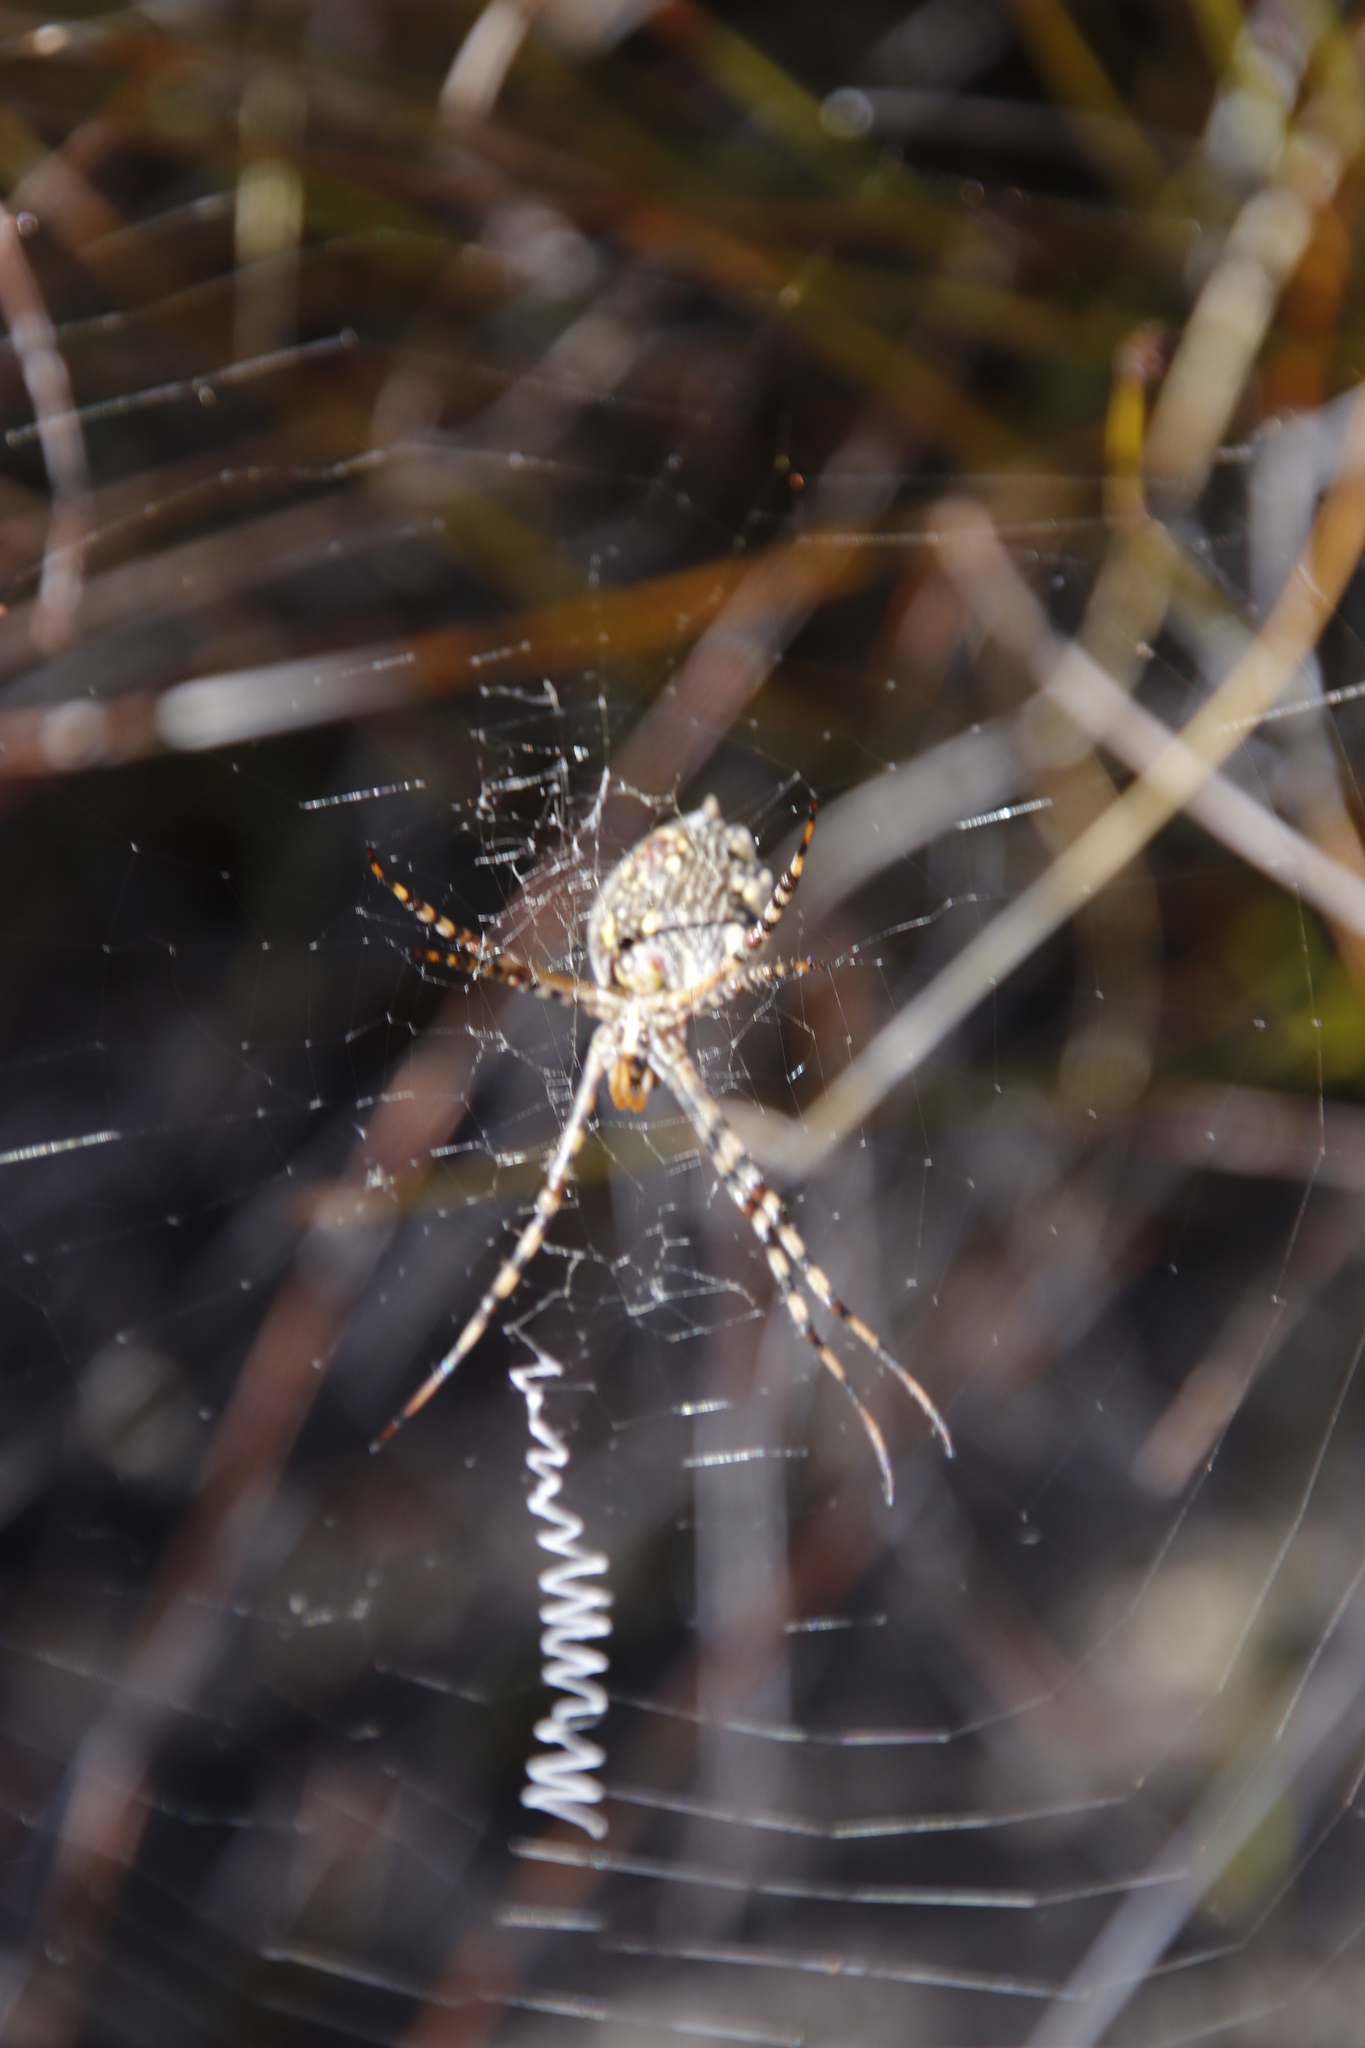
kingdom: Animalia
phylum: Arthropoda
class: Arachnida
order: Araneae
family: Araneidae
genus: Argiope
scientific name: Argiope australis
